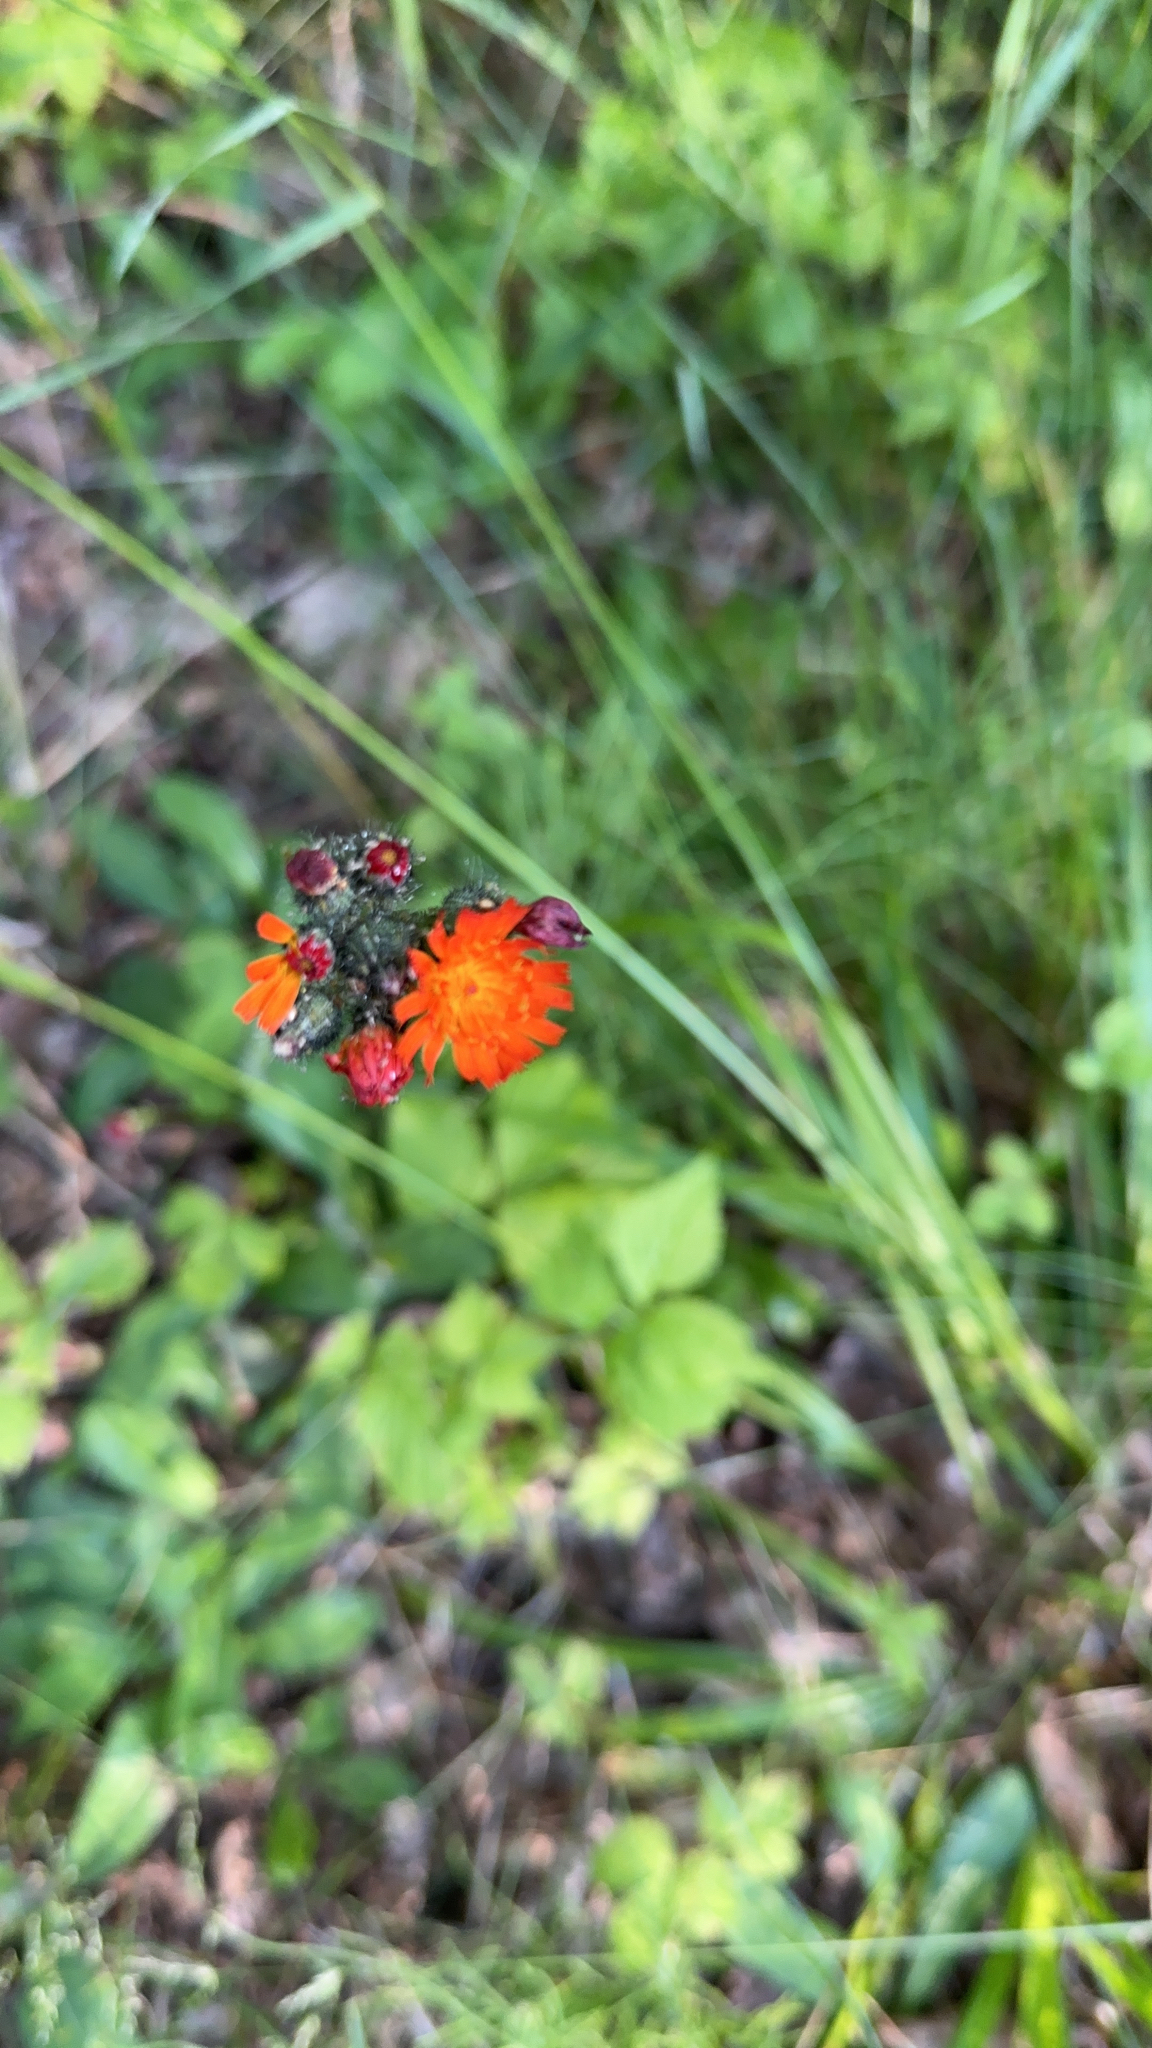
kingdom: Plantae
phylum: Tracheophyta
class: Magnoliopsida
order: Asterales
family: Asteraceae
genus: Pilosella
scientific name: Pilosella aurantiaca
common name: Fox-and-cubs
